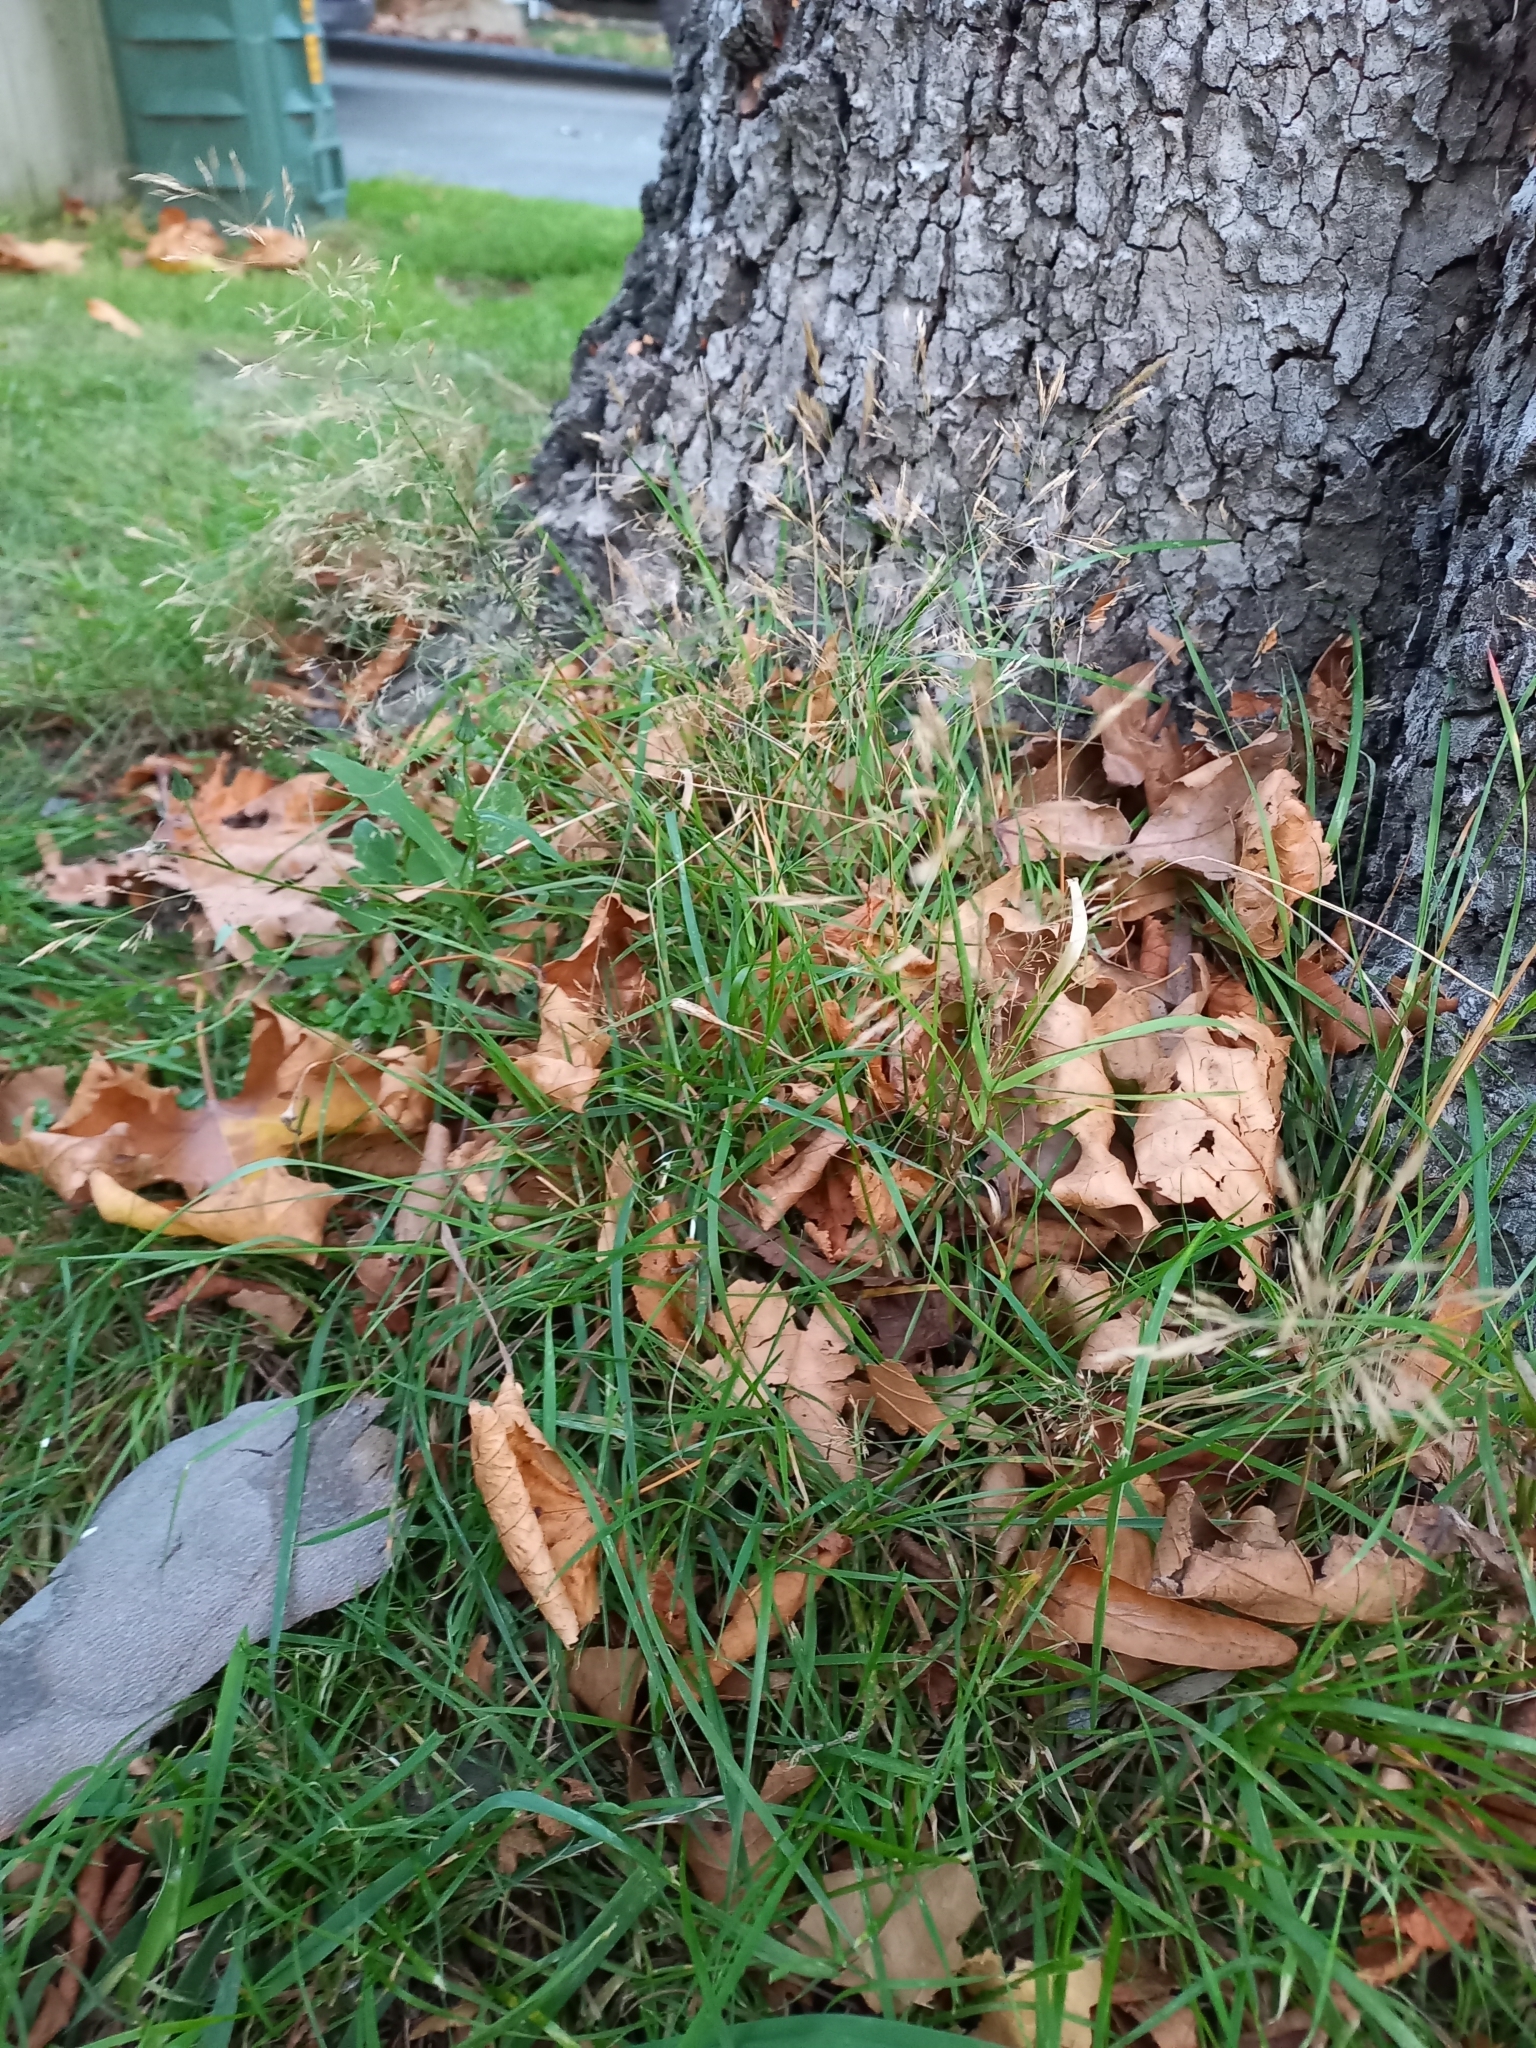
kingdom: Plantae
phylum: Tracheophyta
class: Liliopsida
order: Poales
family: Poaceae
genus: Agrostis
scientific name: Agrostis capillaris
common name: Colonial bentgrass
